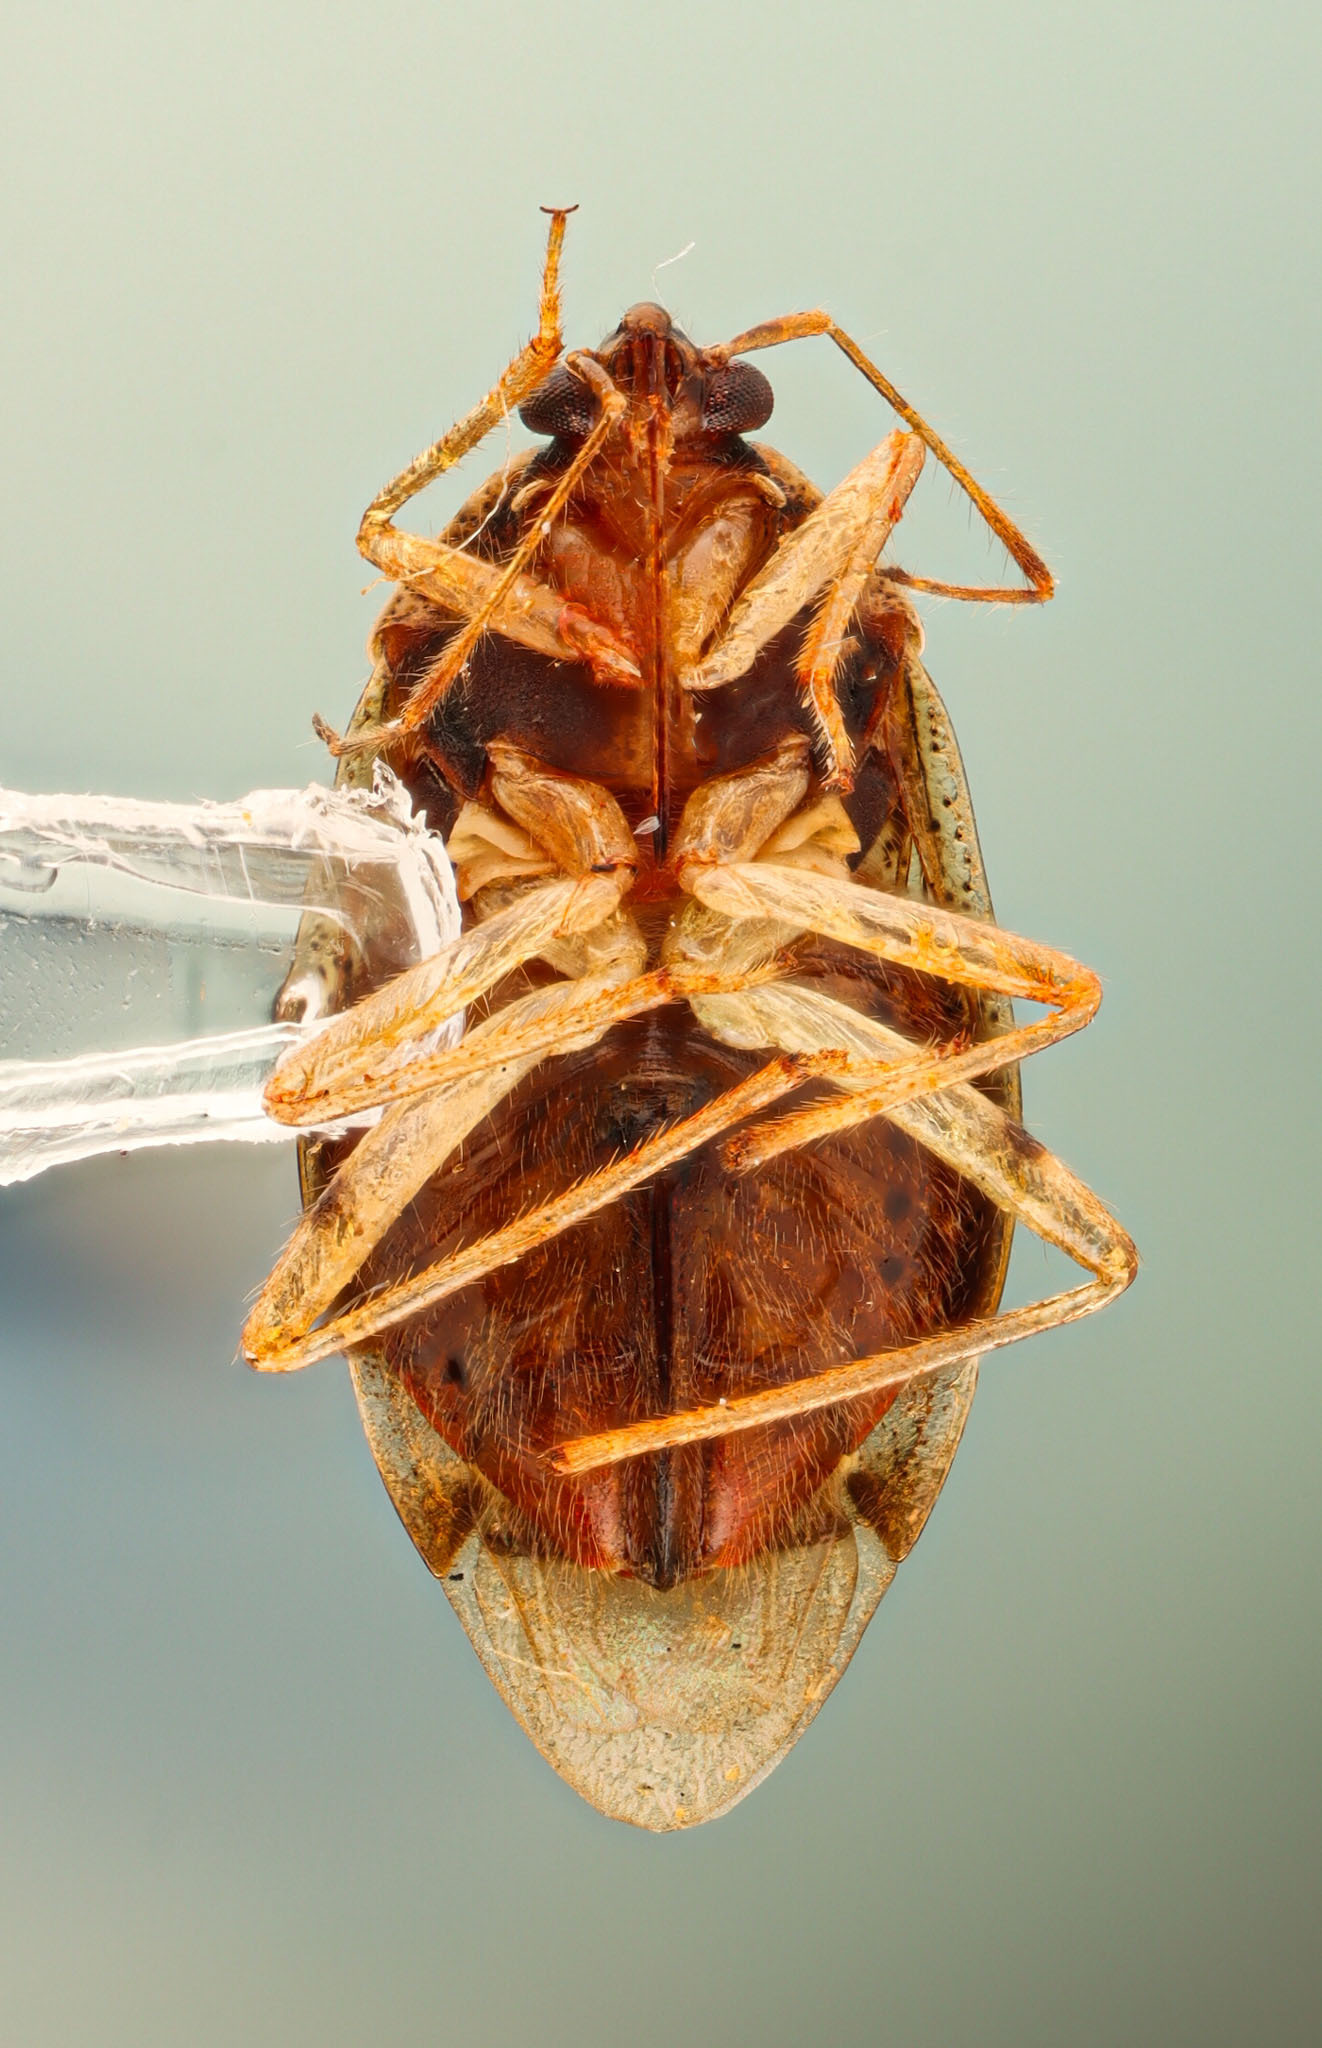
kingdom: Animalia
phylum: Arthropoda
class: Insecta
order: Hemiptera
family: Miridae
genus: Deraeocoris
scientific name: Deraeocoris quercicola
